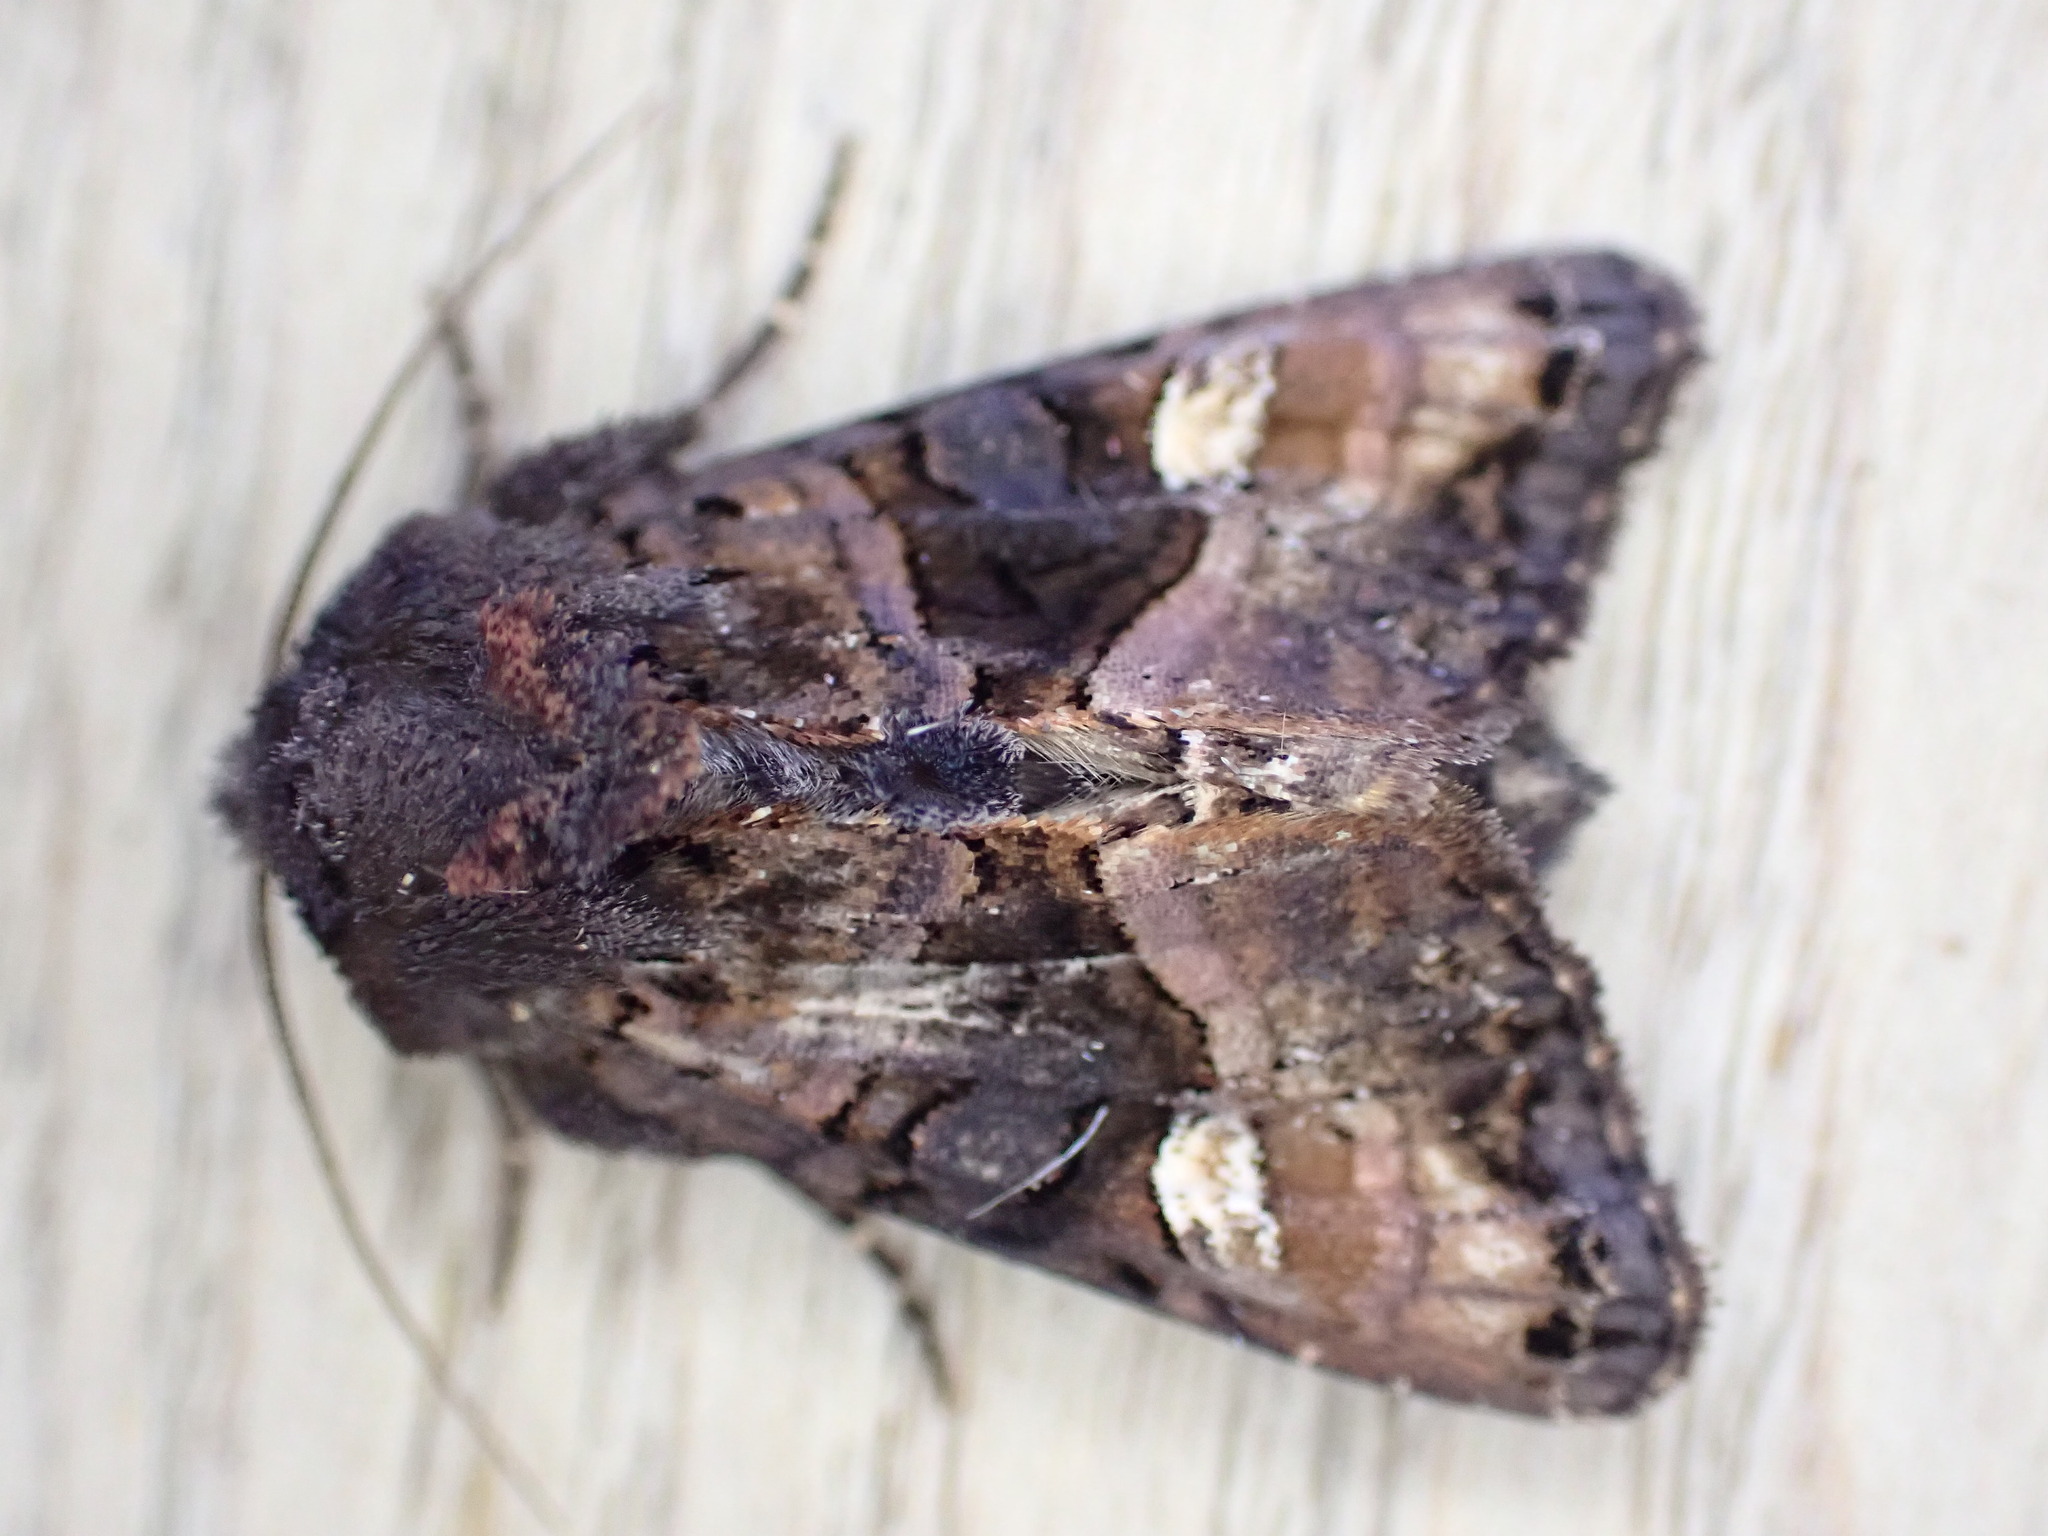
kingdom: Animalia
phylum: Arthropoda
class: Insecta
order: Lepidoptera
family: Noctuidae
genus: Euplexia
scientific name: Euplexia lucipara
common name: Small angle shades
